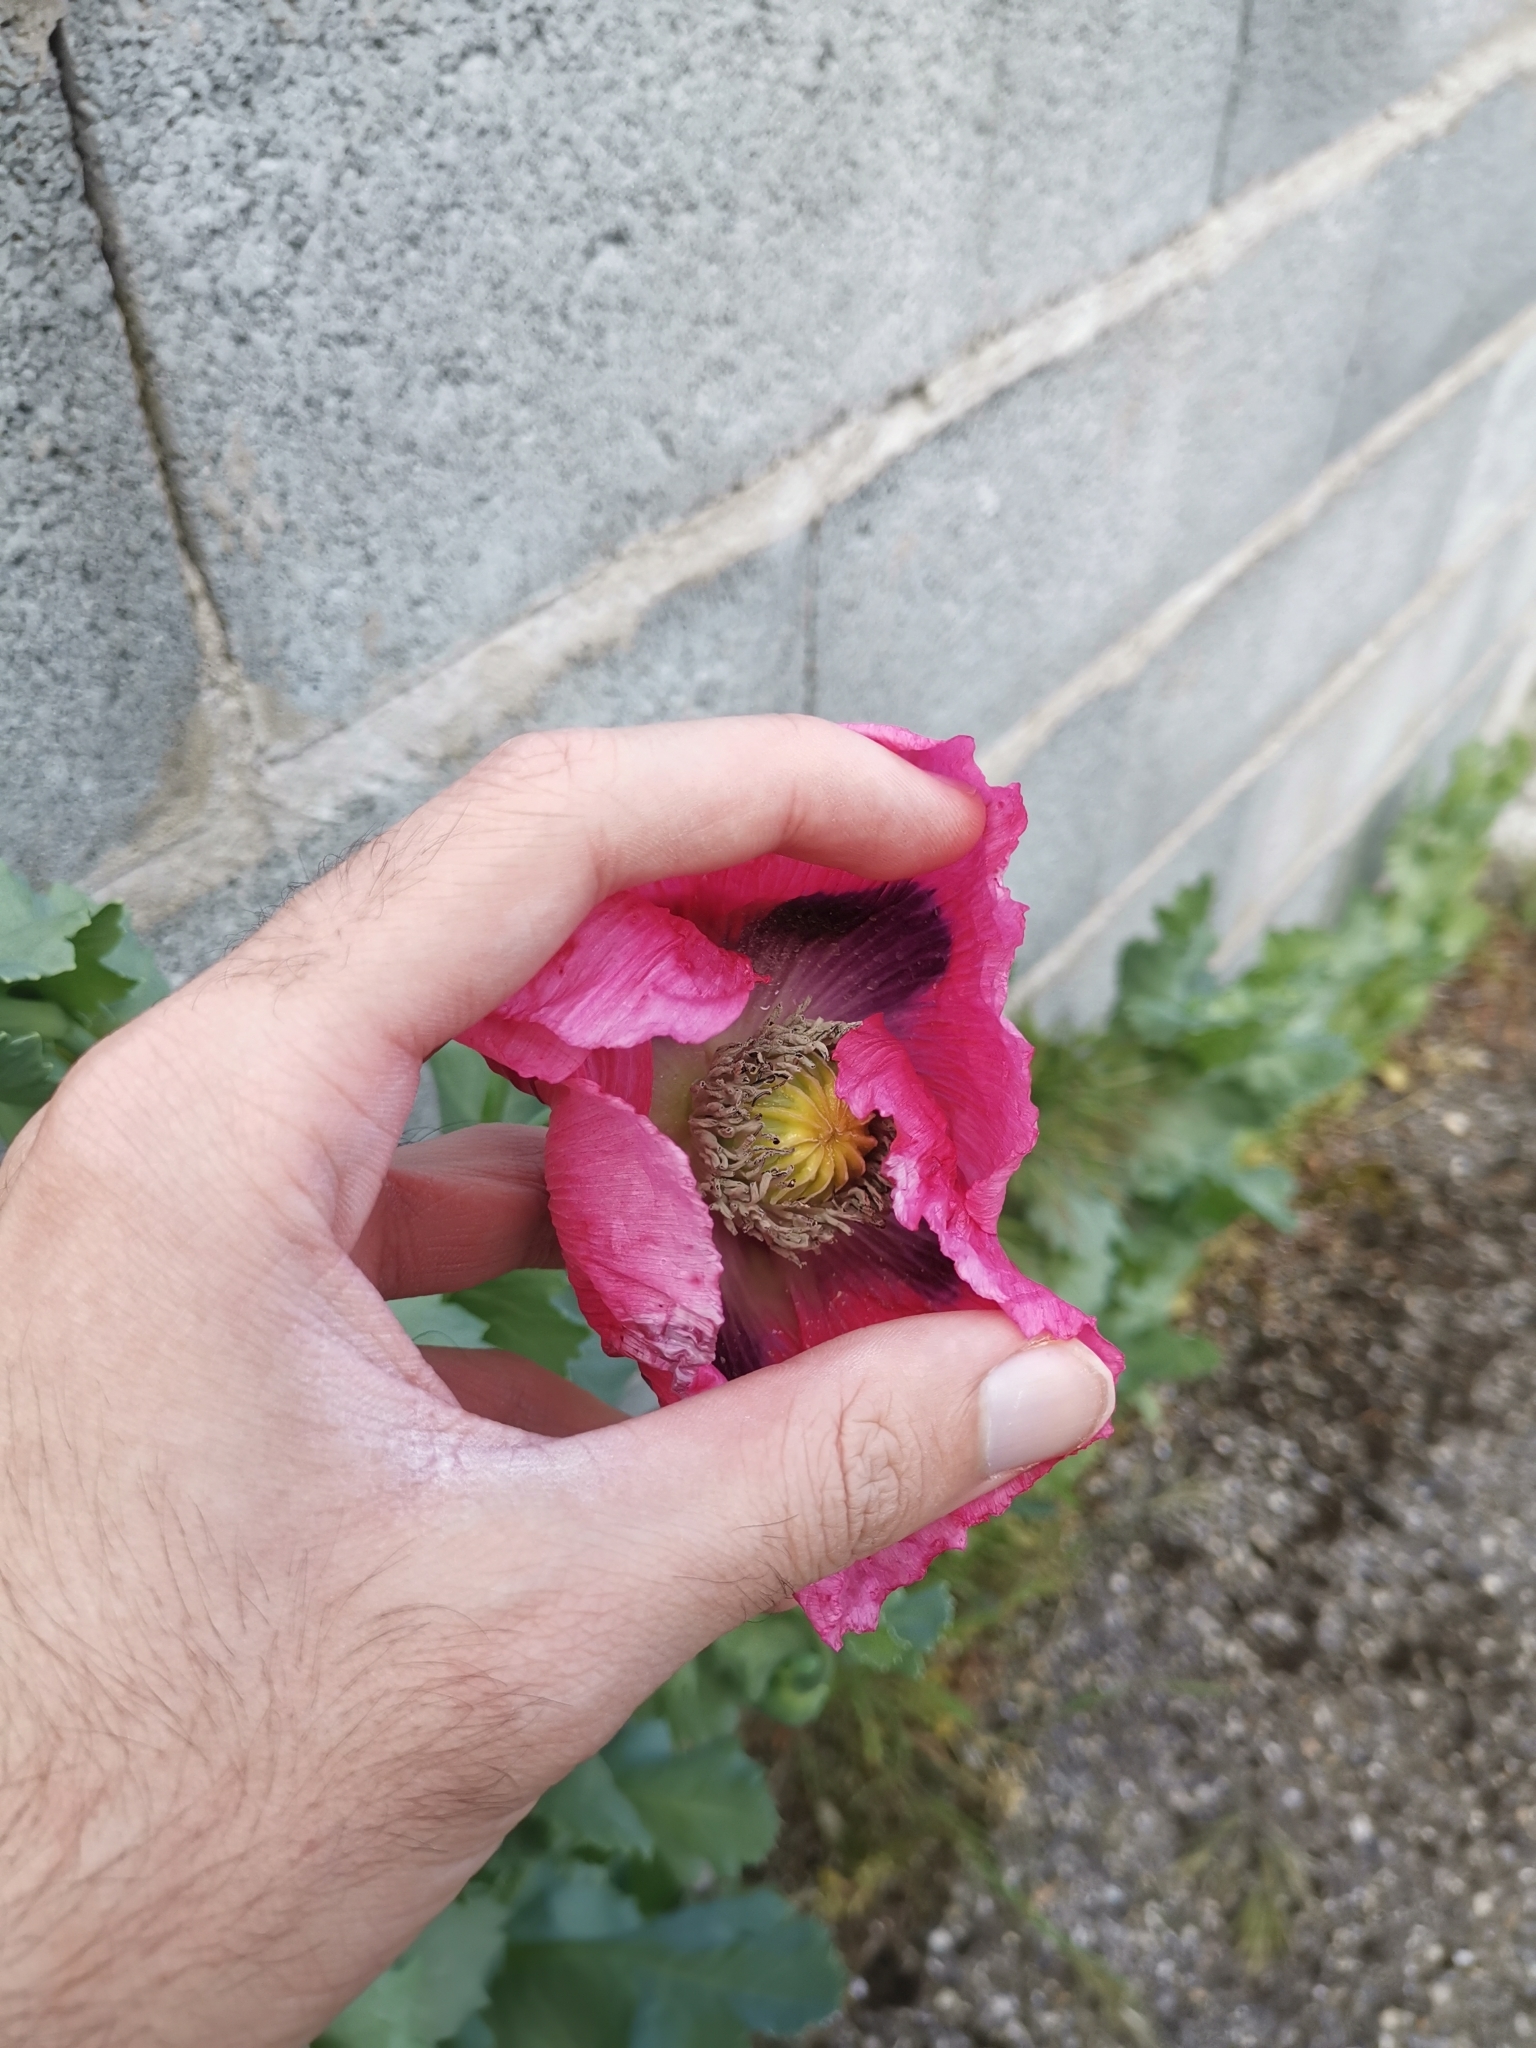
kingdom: Plantae
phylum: Tracheophyta
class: Magnoliopsida
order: Ranunculales
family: Papaveraceae
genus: Papaver
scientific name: Papaver somniferum
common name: Opium poppy
